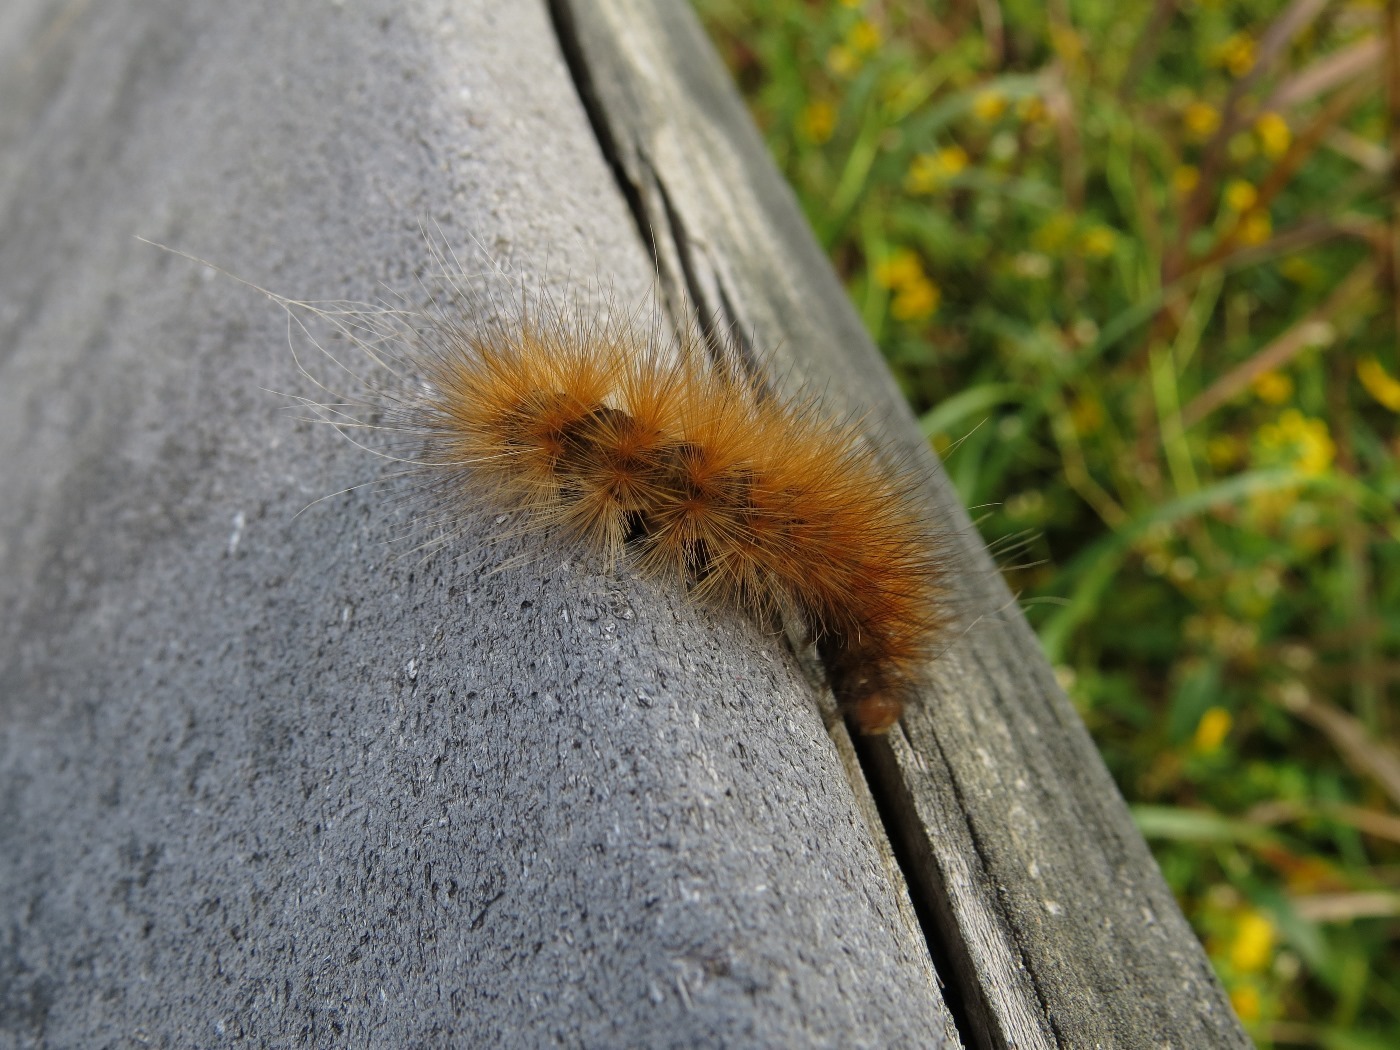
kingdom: Animalia
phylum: Arthropoda
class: Insecta
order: Lepidoptera
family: Erebidae
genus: Spilosoma
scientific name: Spilosoma virginica
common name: Virginia tiger moth
